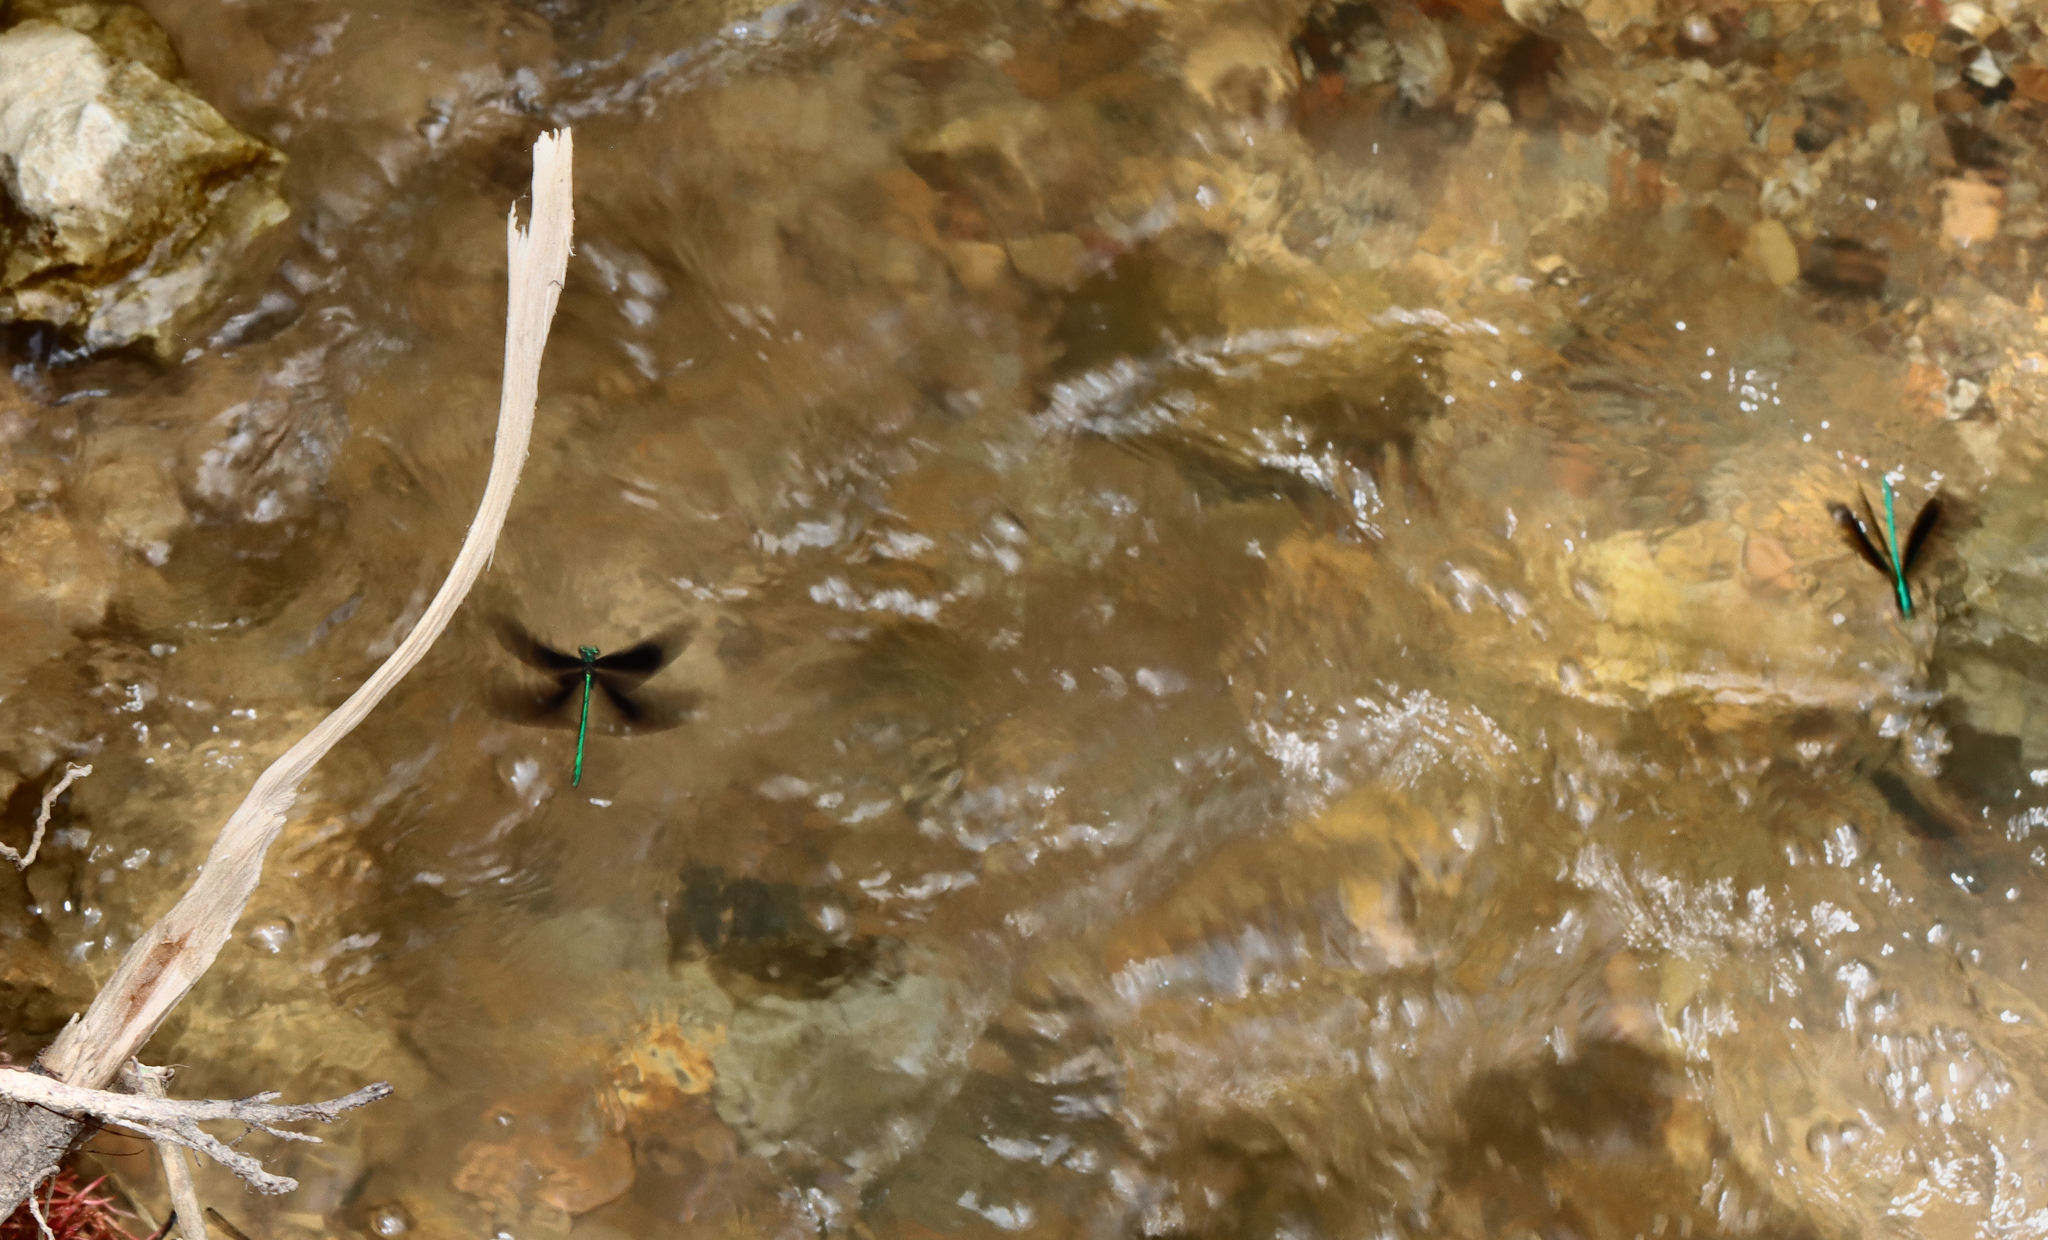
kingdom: Animalia
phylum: Arthropoda
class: Insecta
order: Odonata
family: Calopterygidae
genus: Calopteryx
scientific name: Calopteryx maculata
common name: Ebony jewelwing
